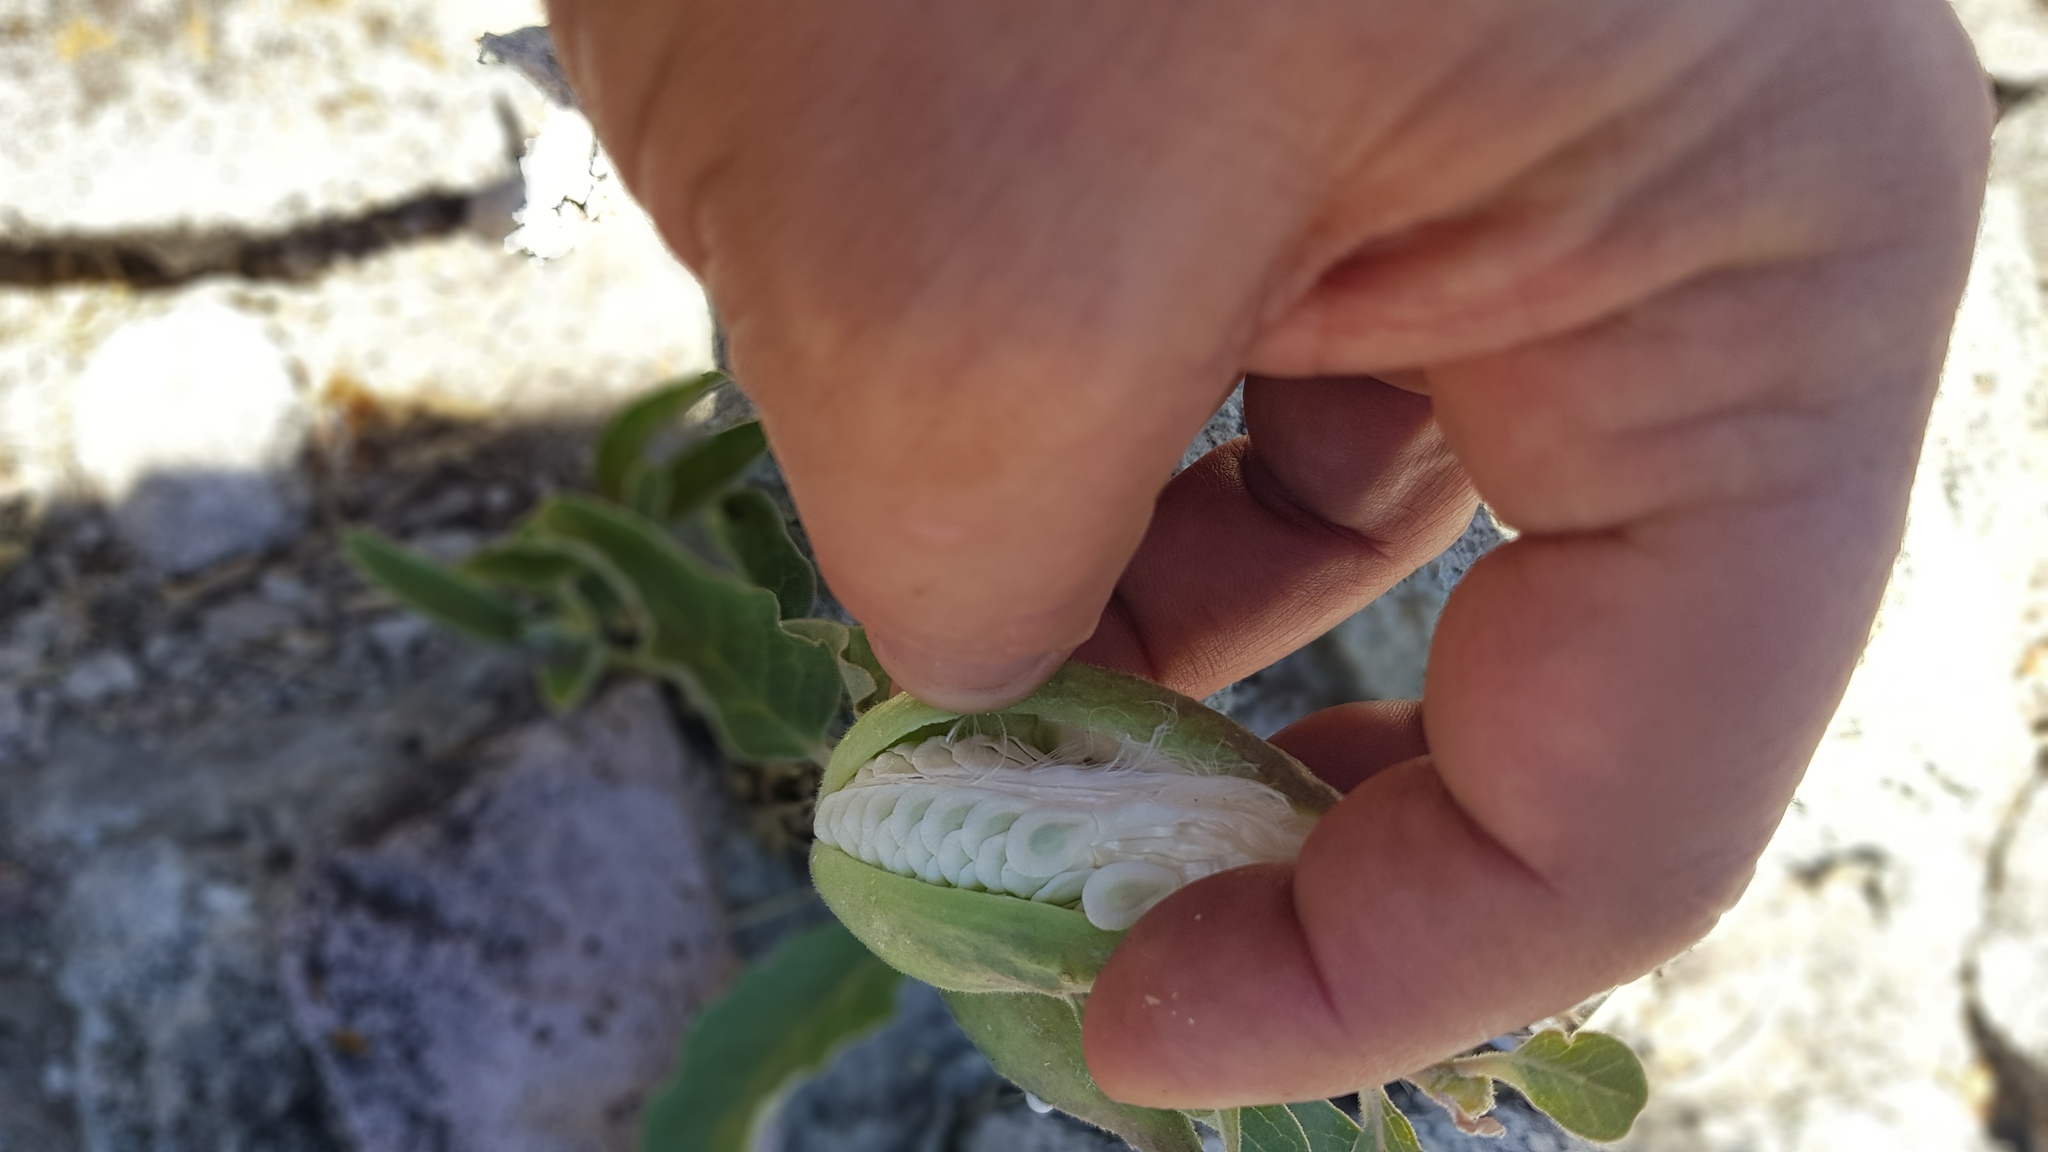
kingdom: Plantae
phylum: Tracheophyta
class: Magnoliopsida
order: Gentianales
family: Apocynaceae
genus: Asclepias
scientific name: Asclepias oenotheroides
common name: Zizotes milkweed
